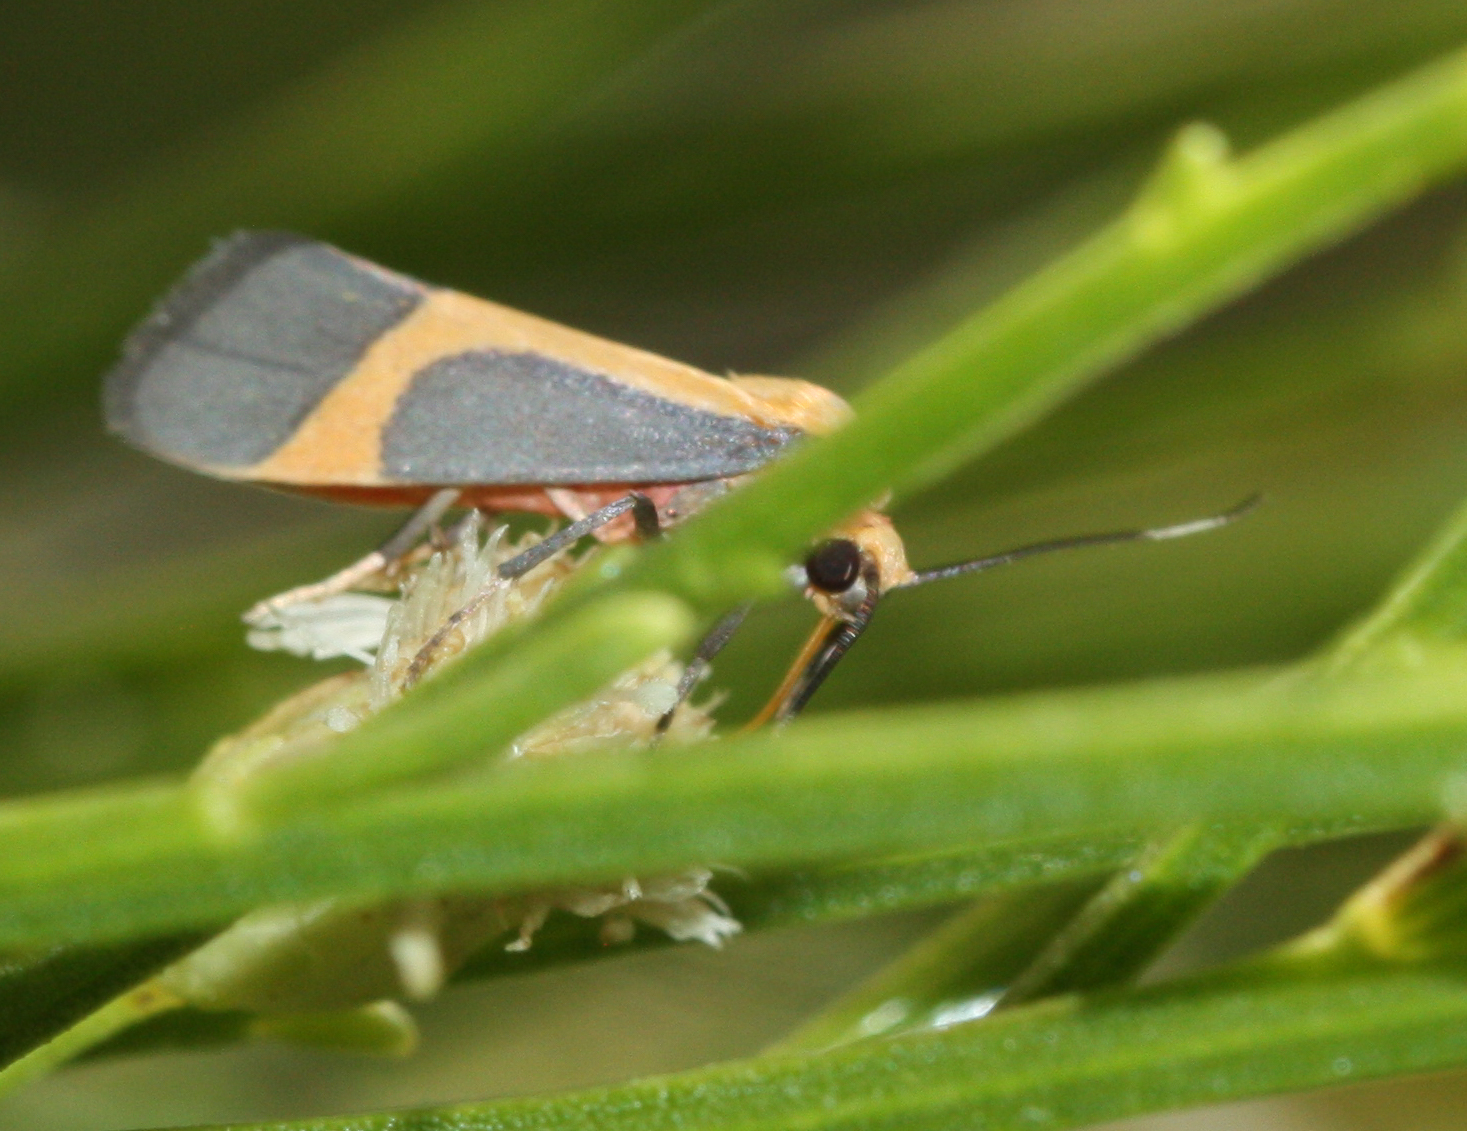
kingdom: Animalia
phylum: Arthropoda
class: Insecta
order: Lepidoptera
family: Erebidae
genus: Cisthene
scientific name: Cisthene angelus
